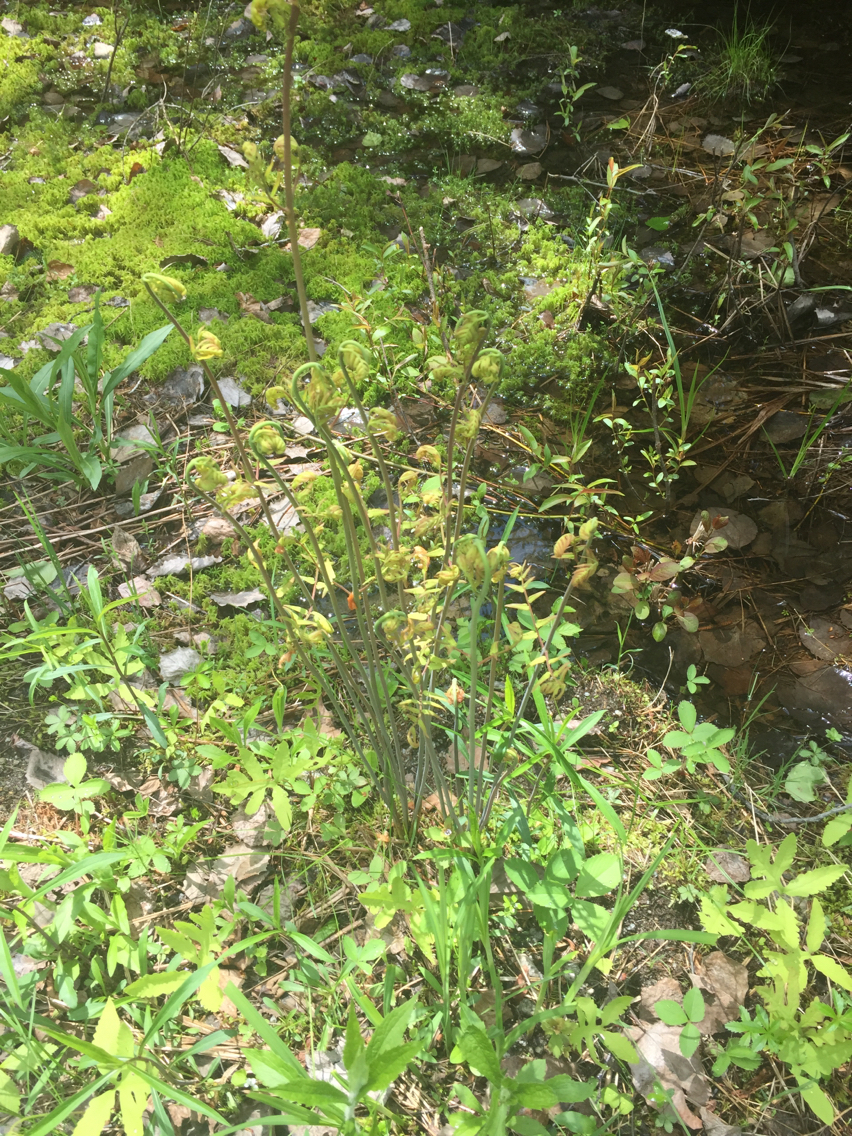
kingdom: Plantae
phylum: Tracheophyta
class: Polypodiopsida
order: Osmundales
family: Osmundaceae
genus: Osmunda
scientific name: Osmunda spectabilis
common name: American royal fern
